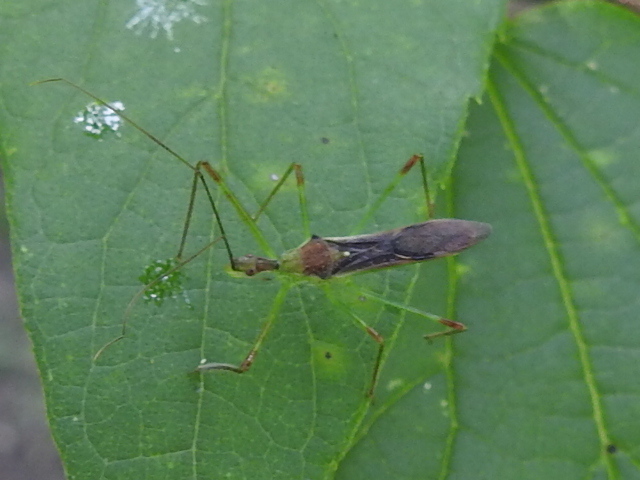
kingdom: Animalia
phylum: Arthropoda
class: Insecta
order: Hemiptera
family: Reduviidae
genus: Zelus
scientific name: Zelus luridus
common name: Pale green assassin bug
